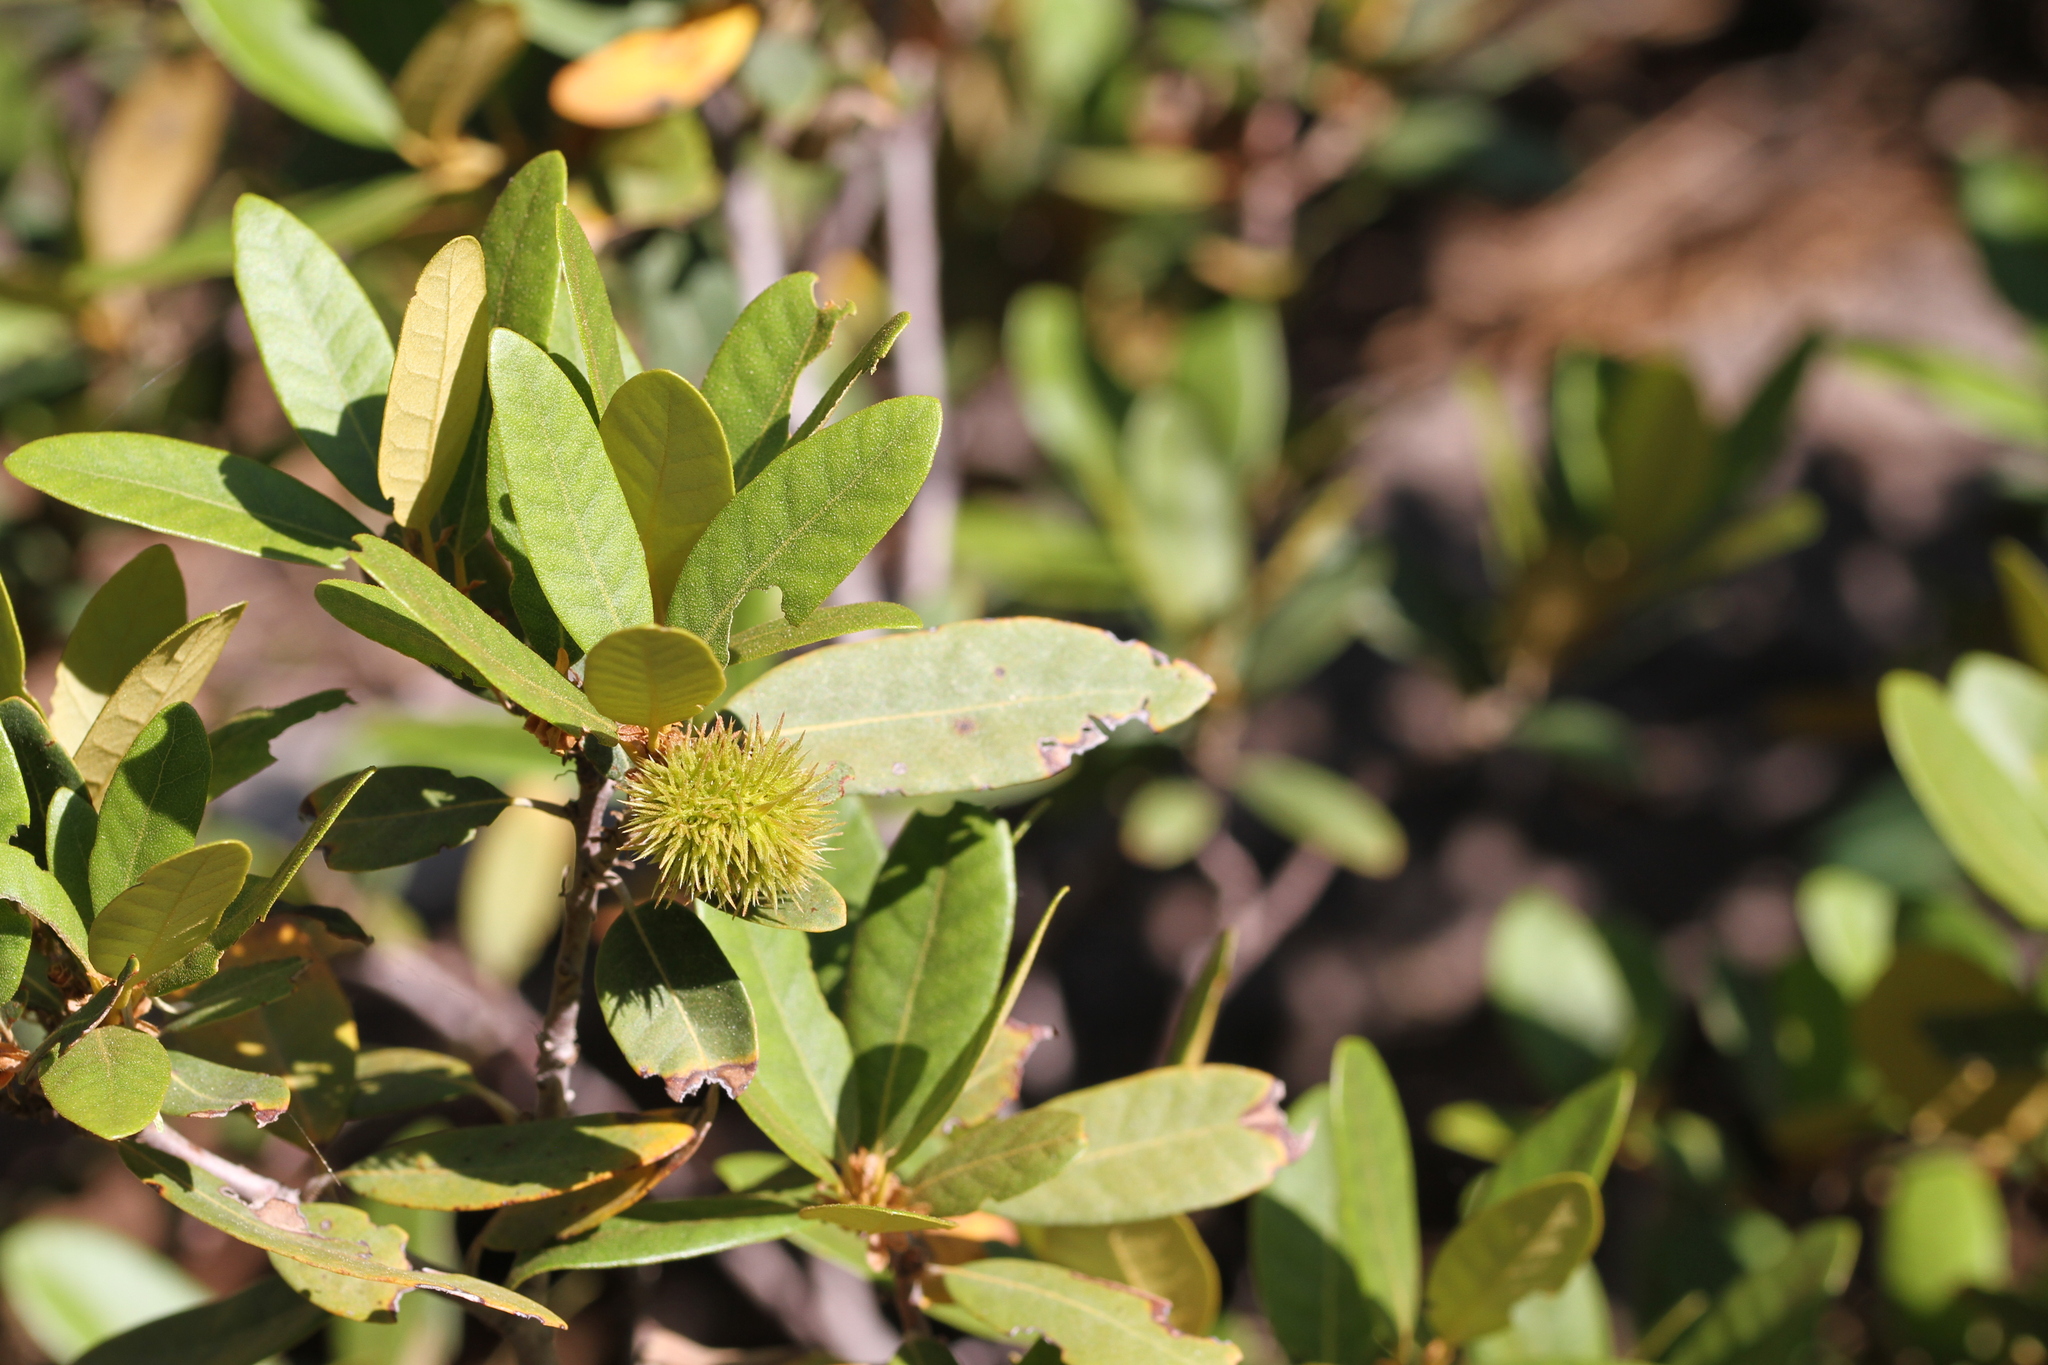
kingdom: Plantae
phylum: Tracheophyta
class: Magnoliopsida
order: Fagales
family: Fagaceae
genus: Chrysolepis
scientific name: Chrysolepis sempervirens
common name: Bush chinquapin
